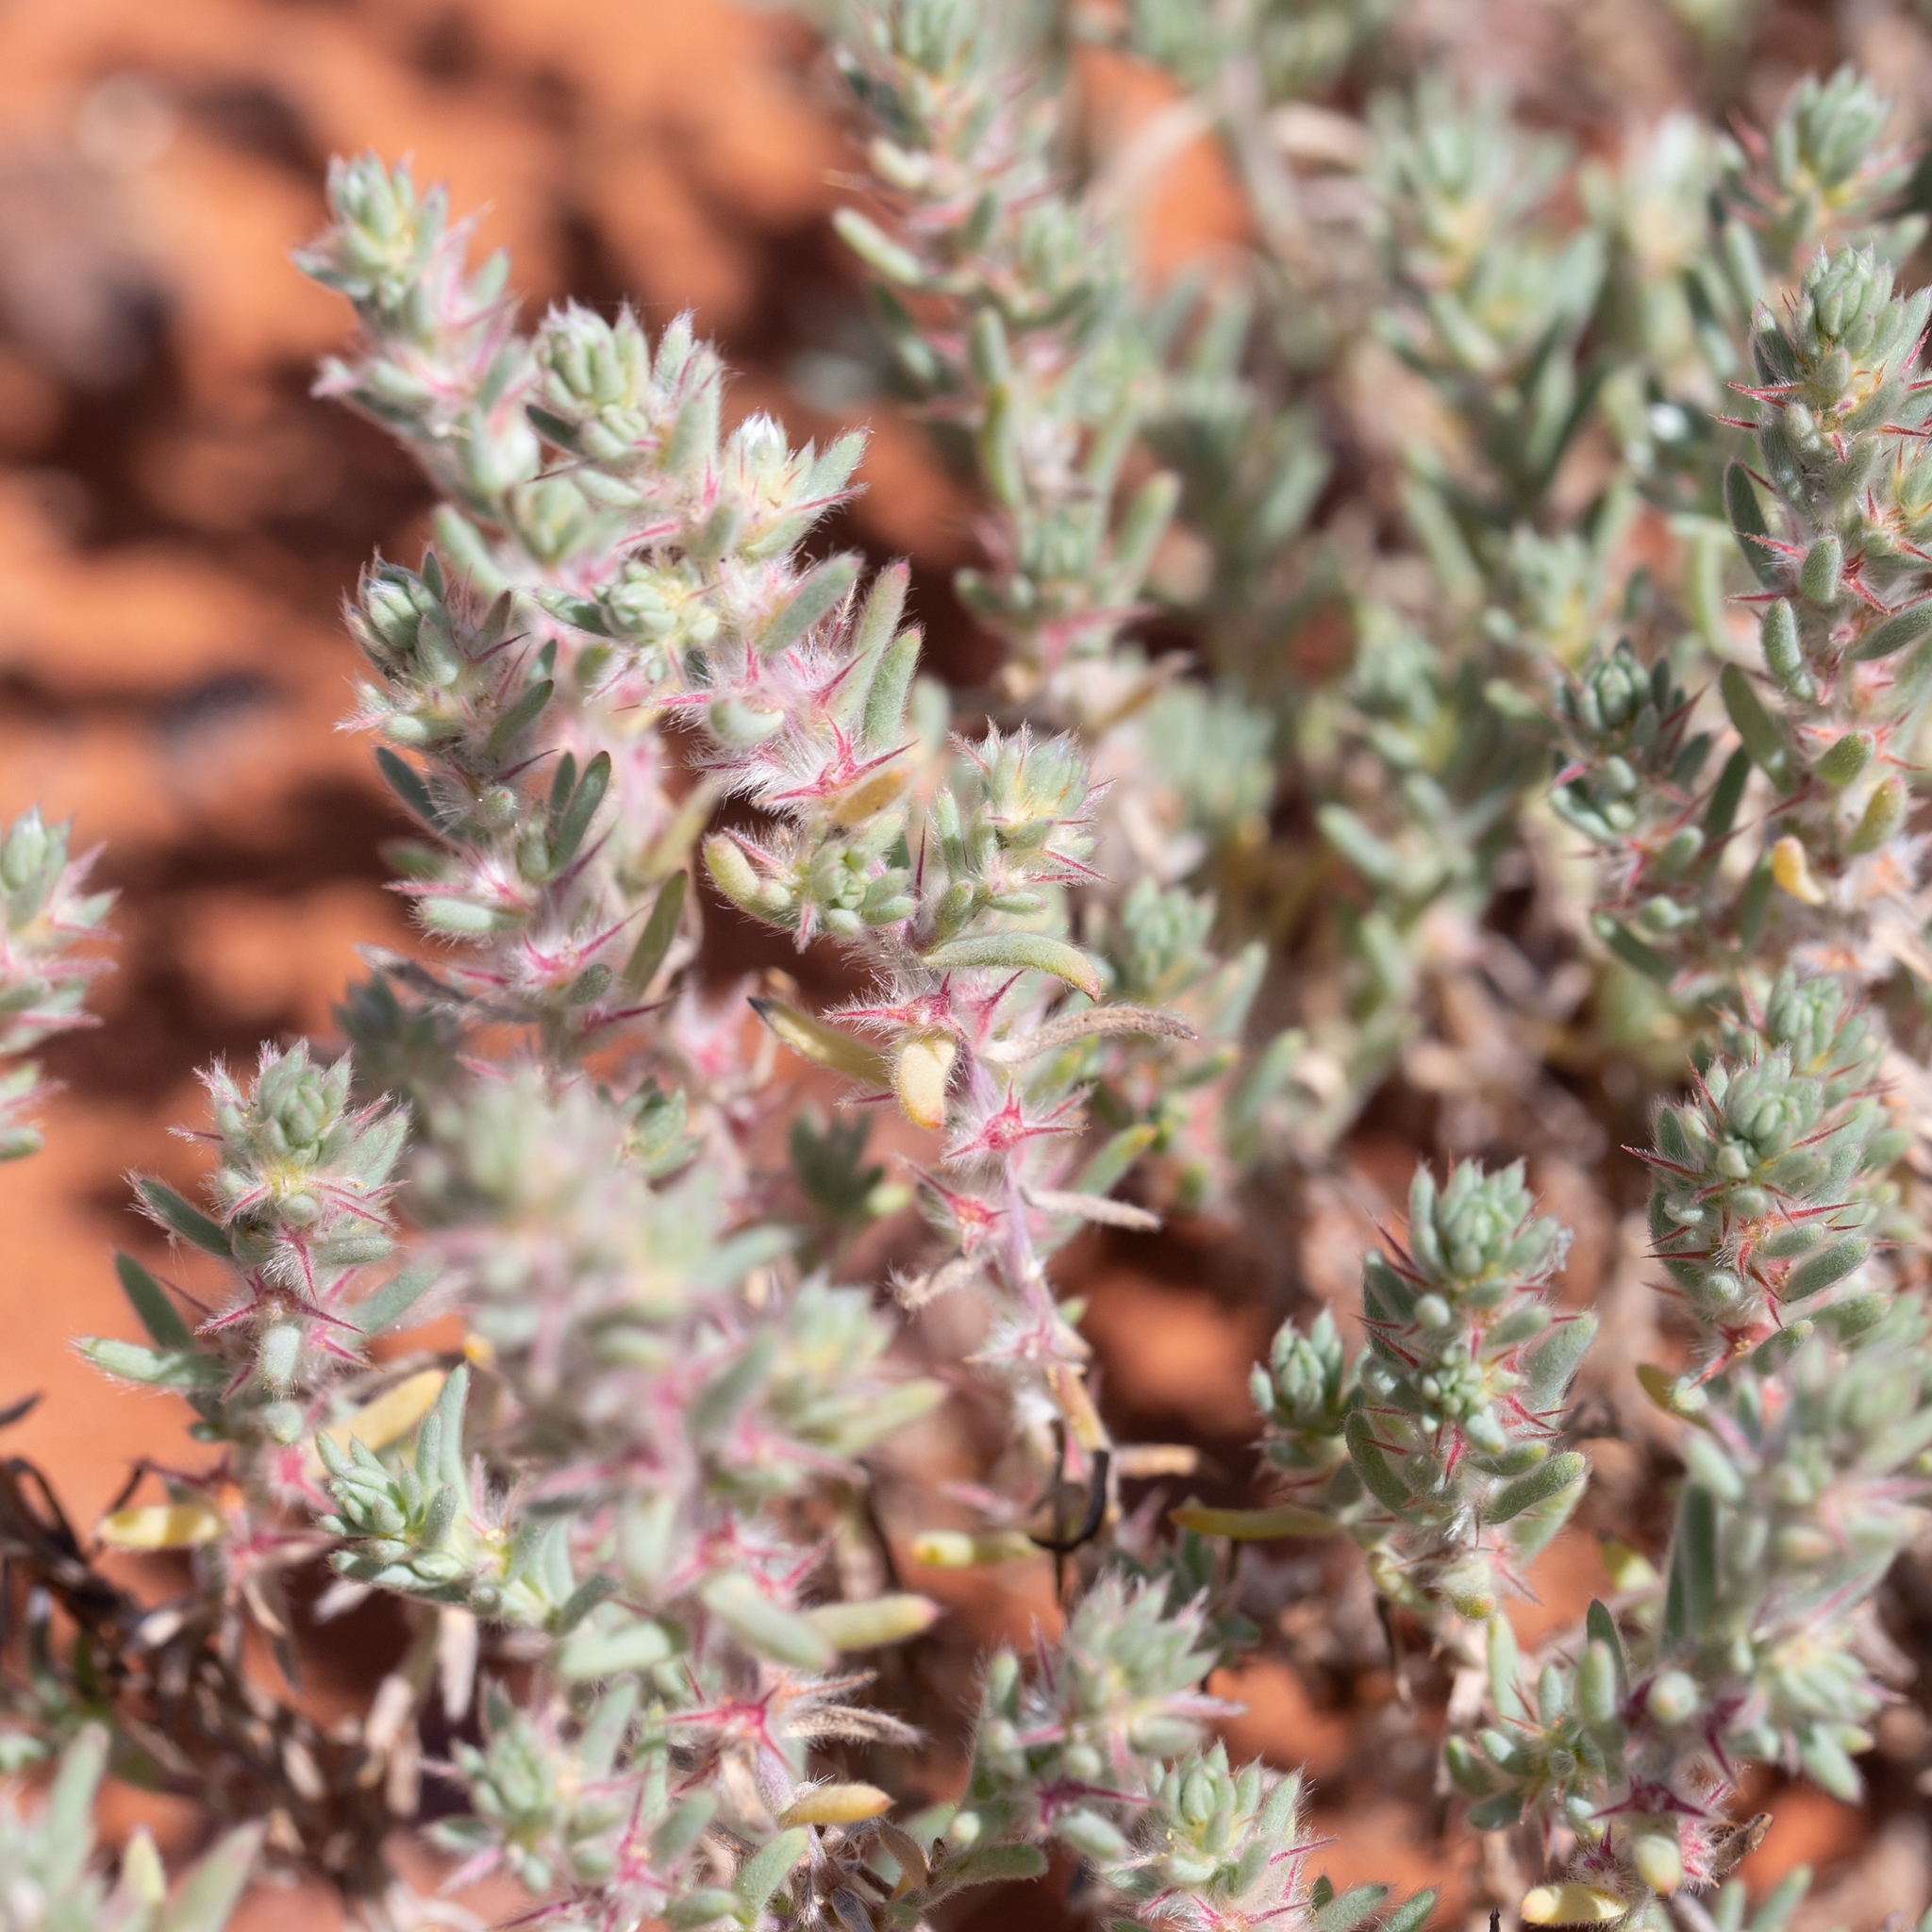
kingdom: Plantae
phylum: Tracheophyta
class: Magnoliopsida
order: Caryophyllales
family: Amaranthaceae
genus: Sclerolaena
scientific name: Sclerolaena lanicuspis
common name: Copperbur
